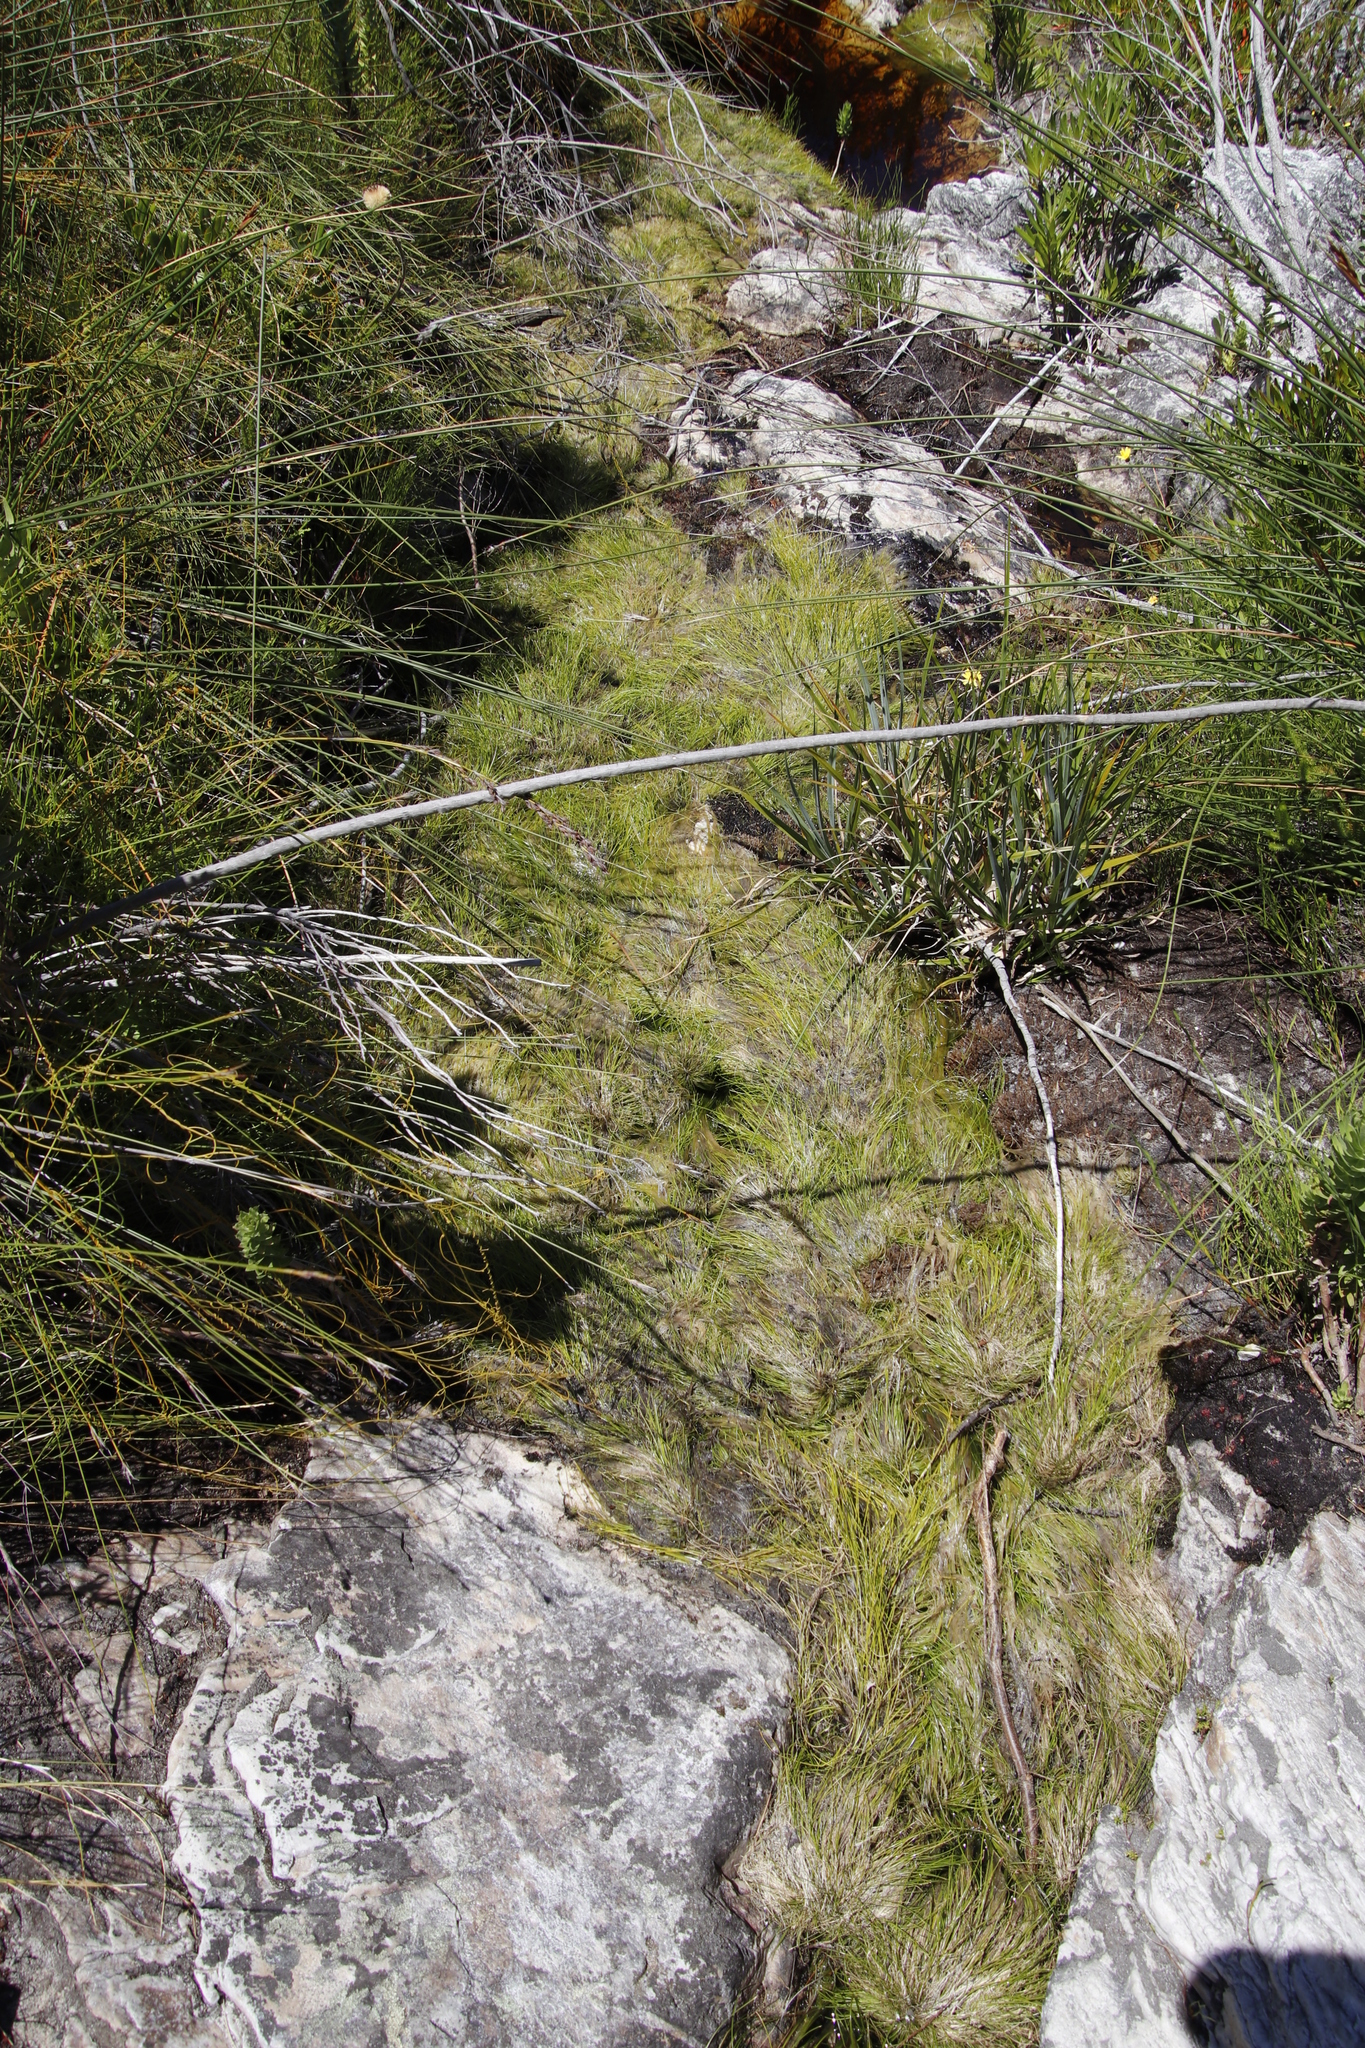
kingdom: Plantae
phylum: Tracheophyta
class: Liliopsida
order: Poales
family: Cyperaceae
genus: Isolepis
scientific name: Isolepis digitata
